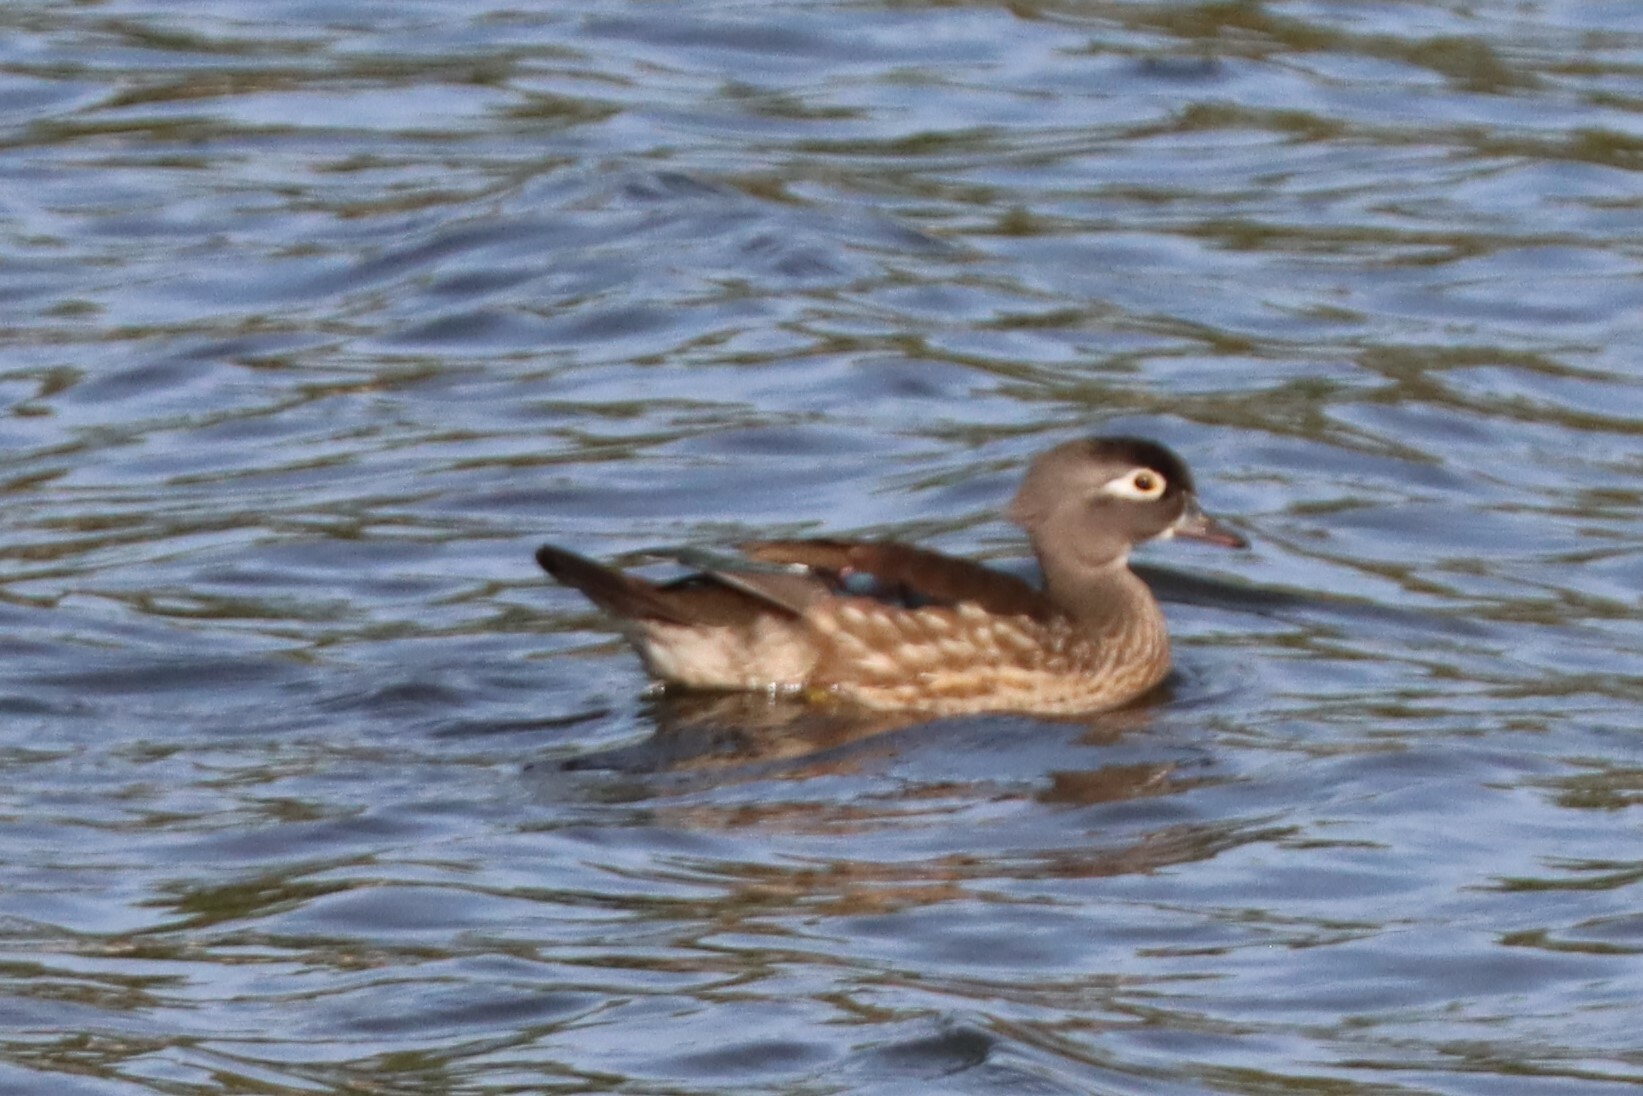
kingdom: Animalia
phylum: Chordata
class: Aves
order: Anseriformes
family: Anatidae
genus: Aix
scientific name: Aix sponsa
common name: Wood duck
